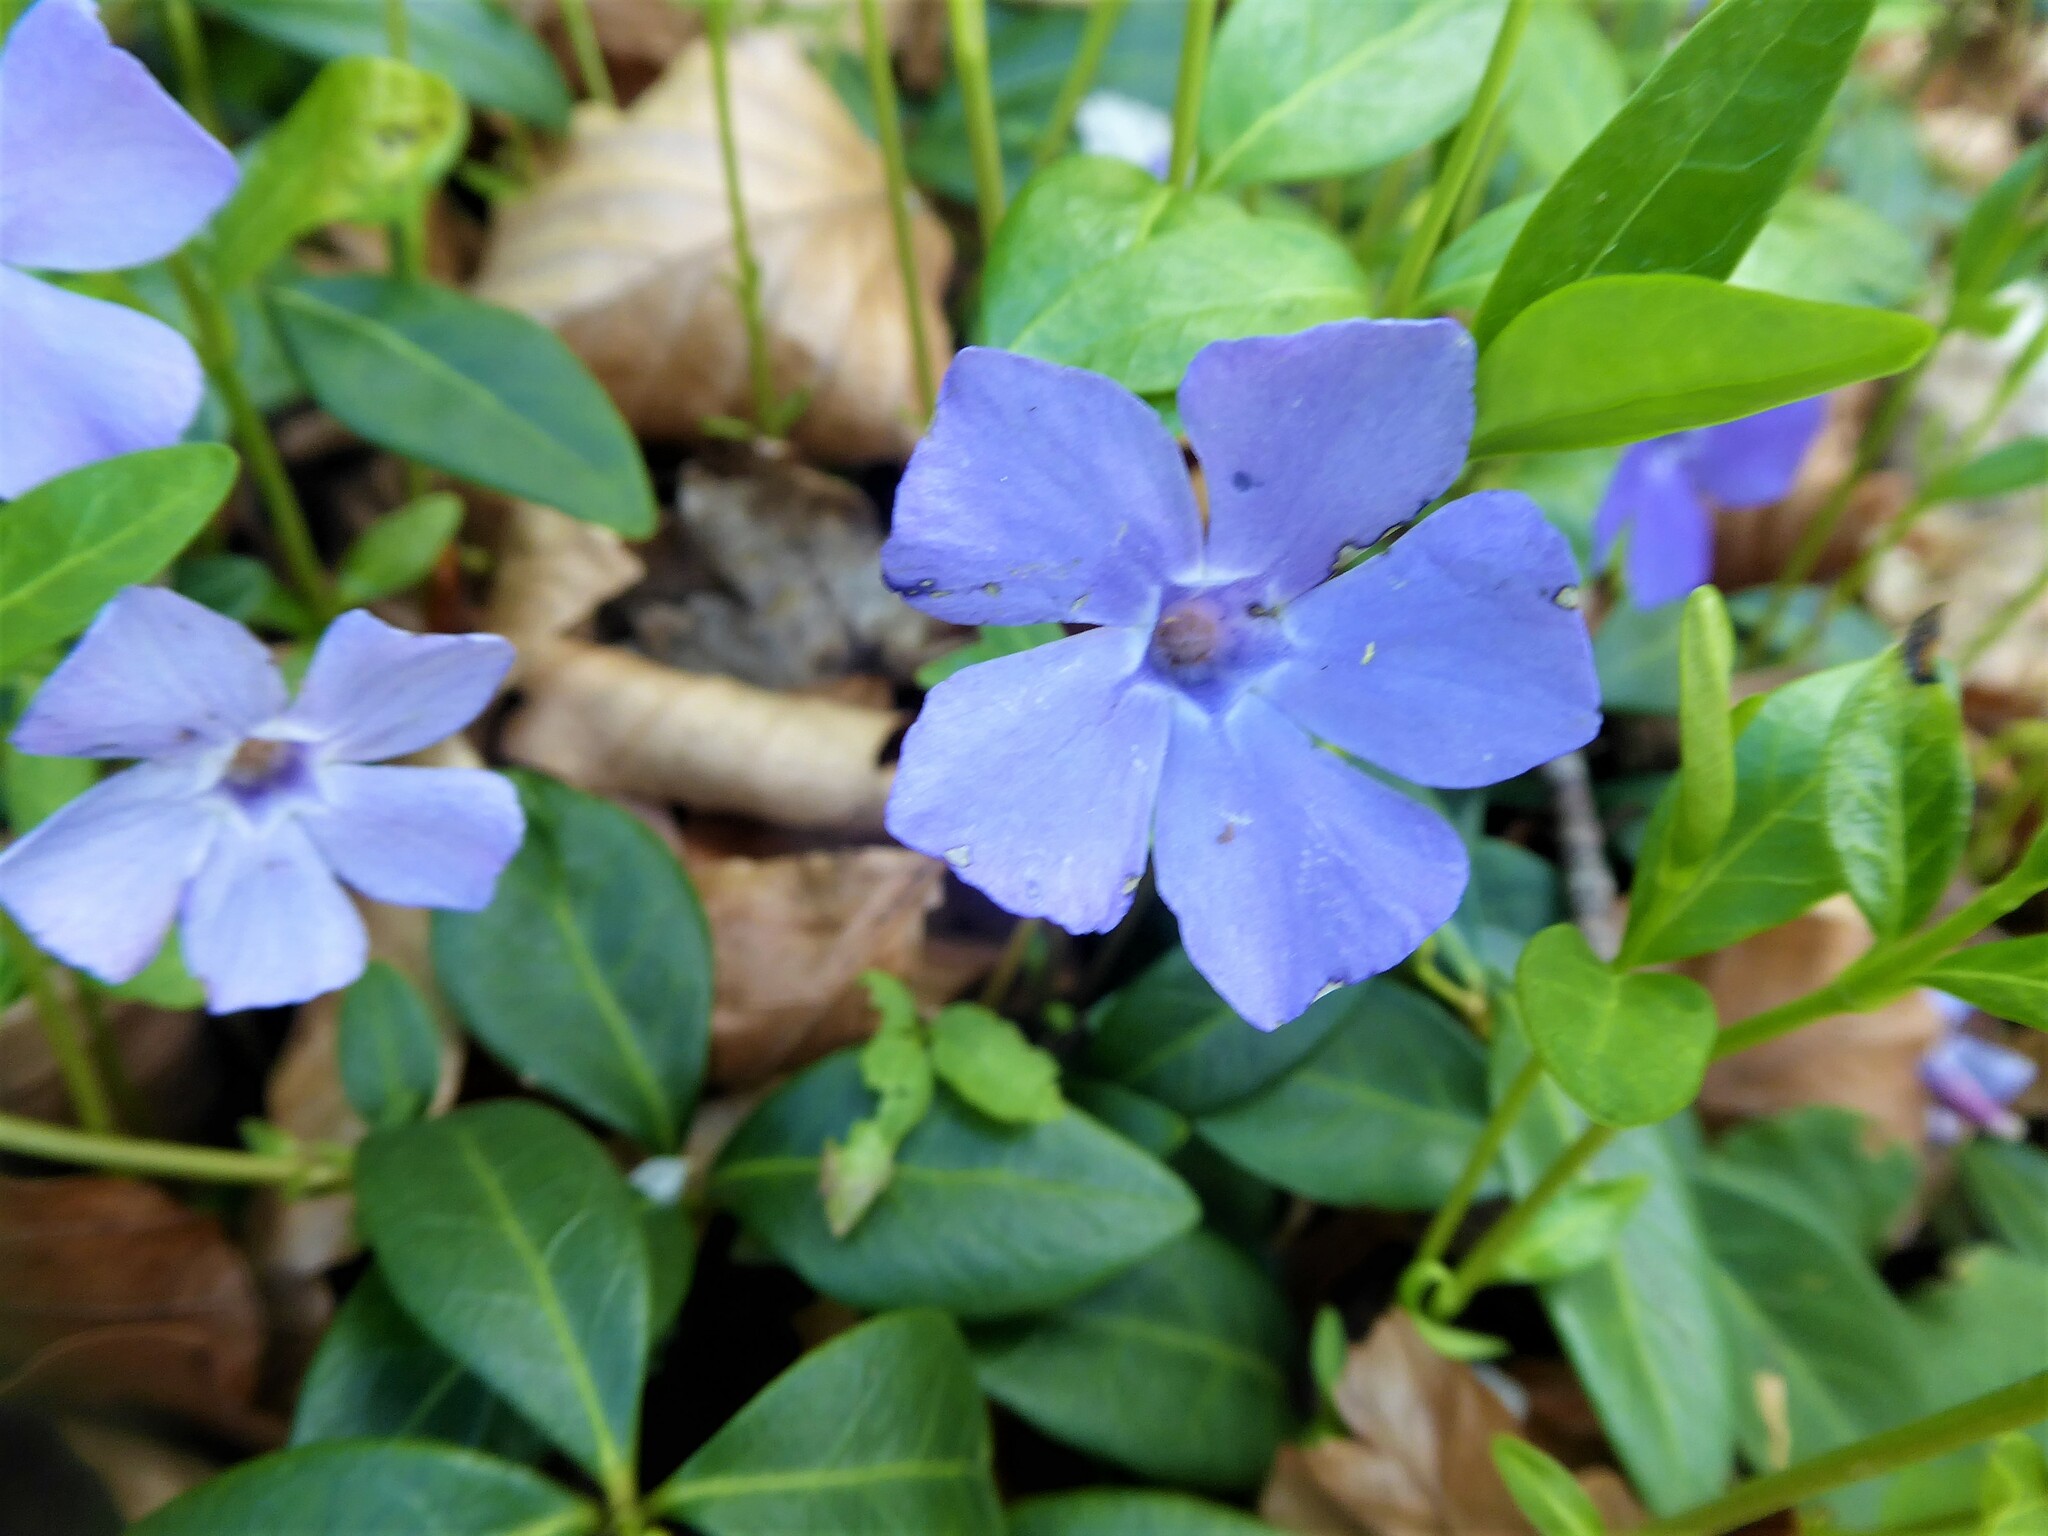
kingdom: Plantae
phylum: Tracheophyta
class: Magnoliopsida
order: Gentianales
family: Apocynaceae
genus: Vinca
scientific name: Vinca minor
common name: Lesser periwinkle
